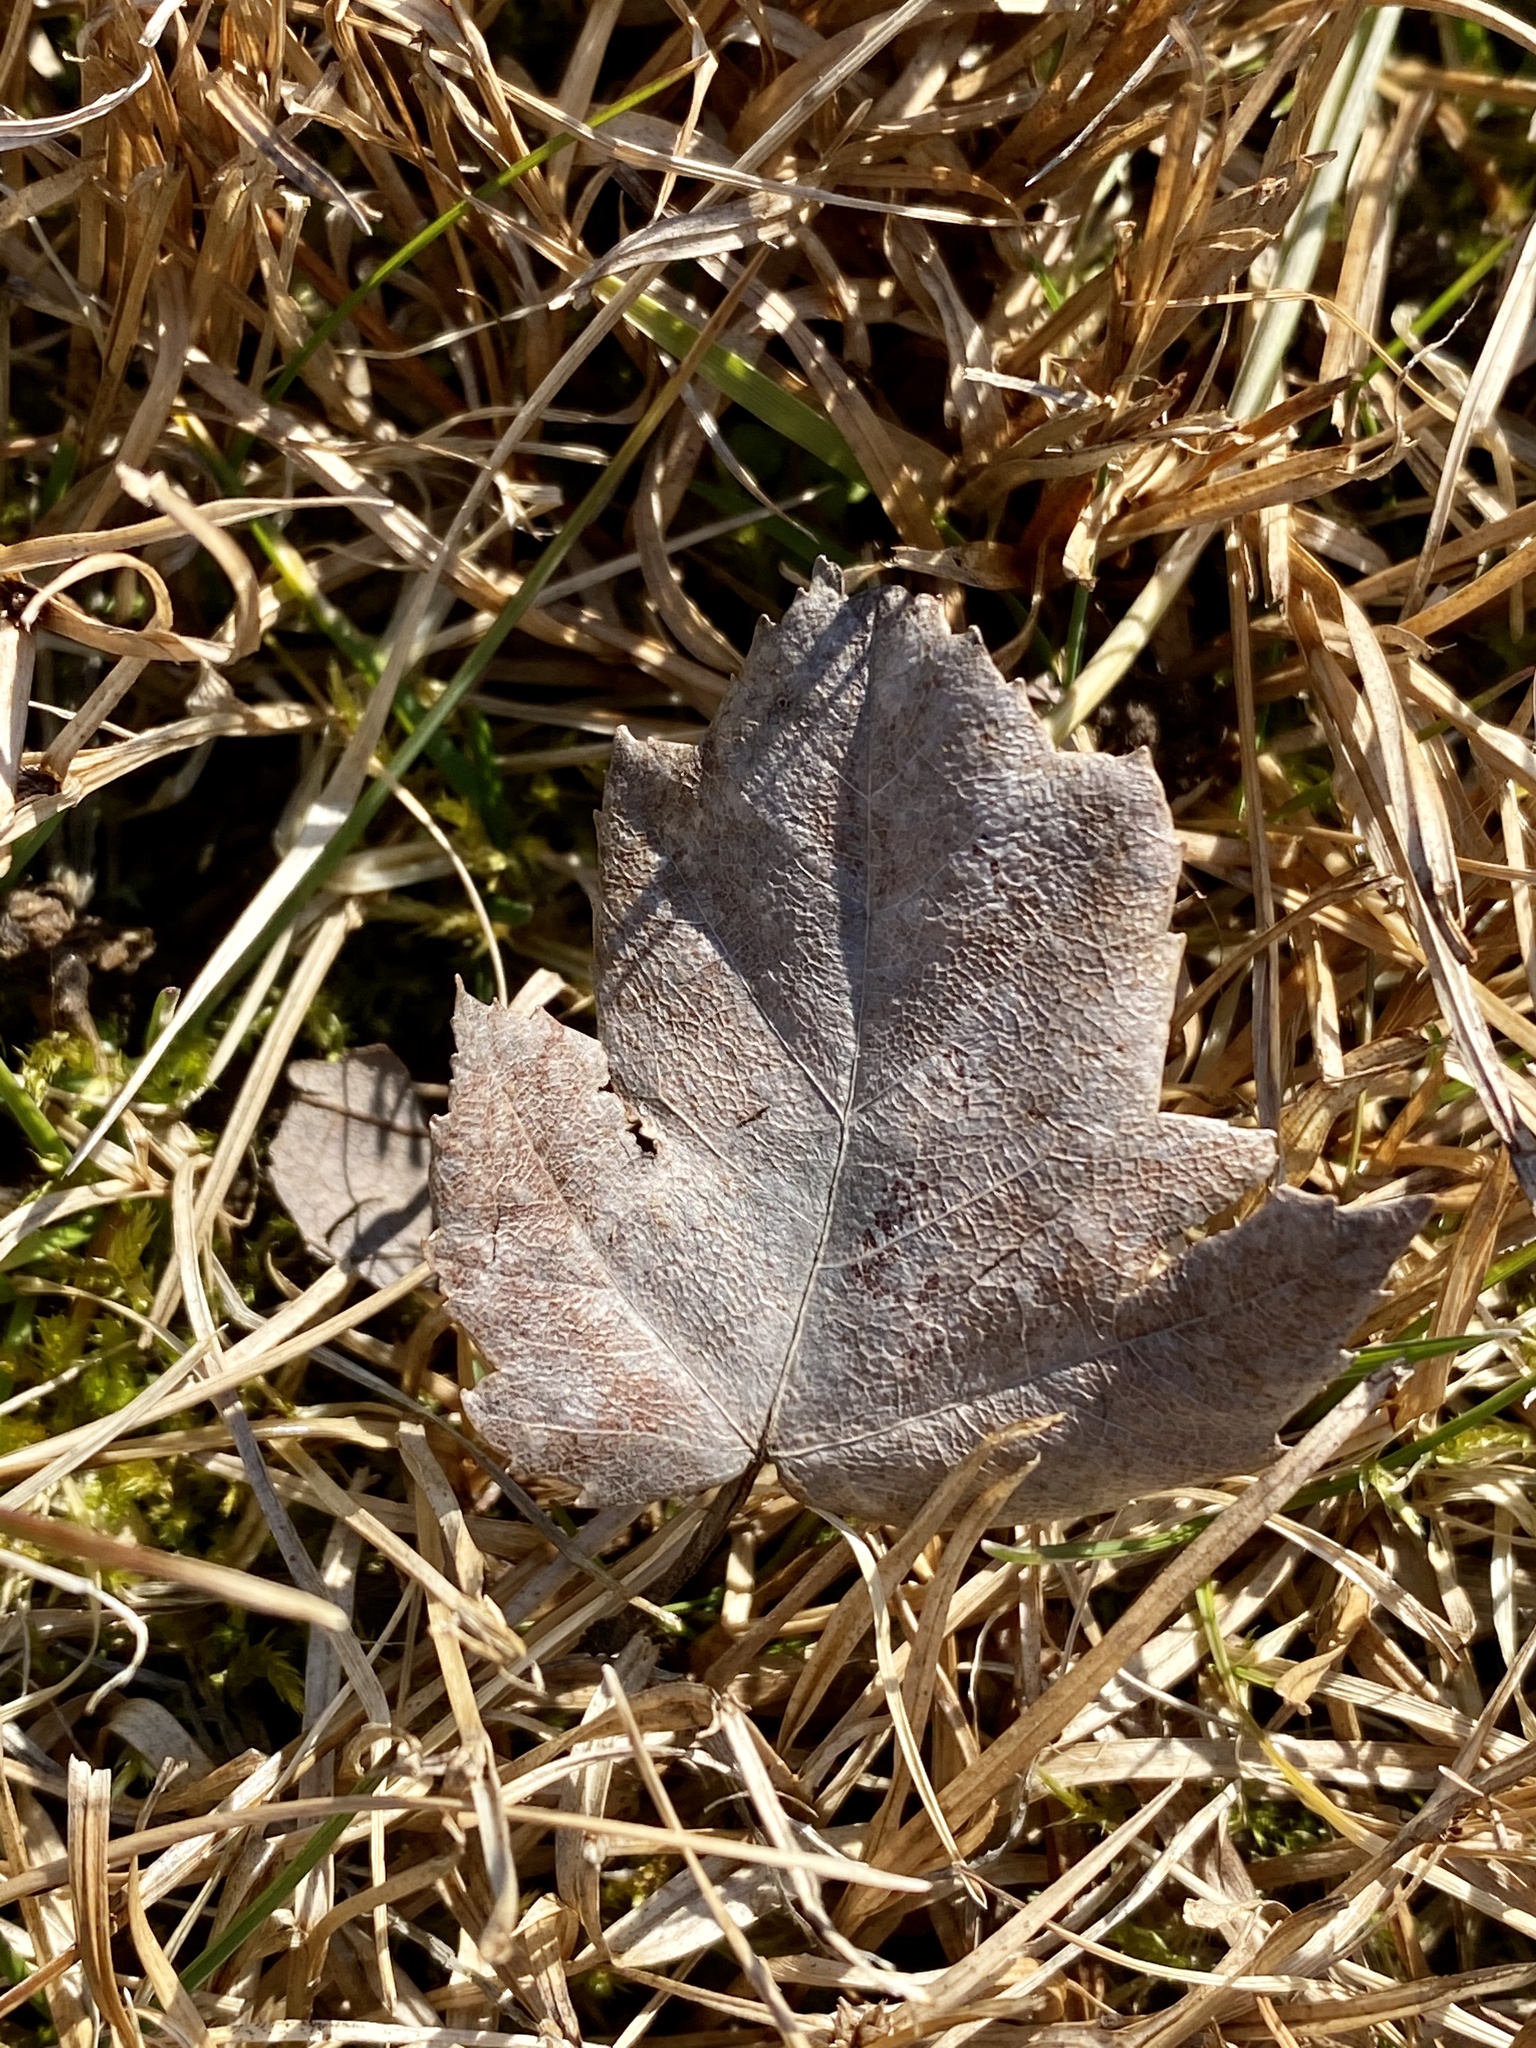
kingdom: Plantae
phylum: Tracheophyta
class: Magnoliopsida
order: Sapindales
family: Sapindaceae
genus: Acer
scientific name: Acer rubrum
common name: Red maple
